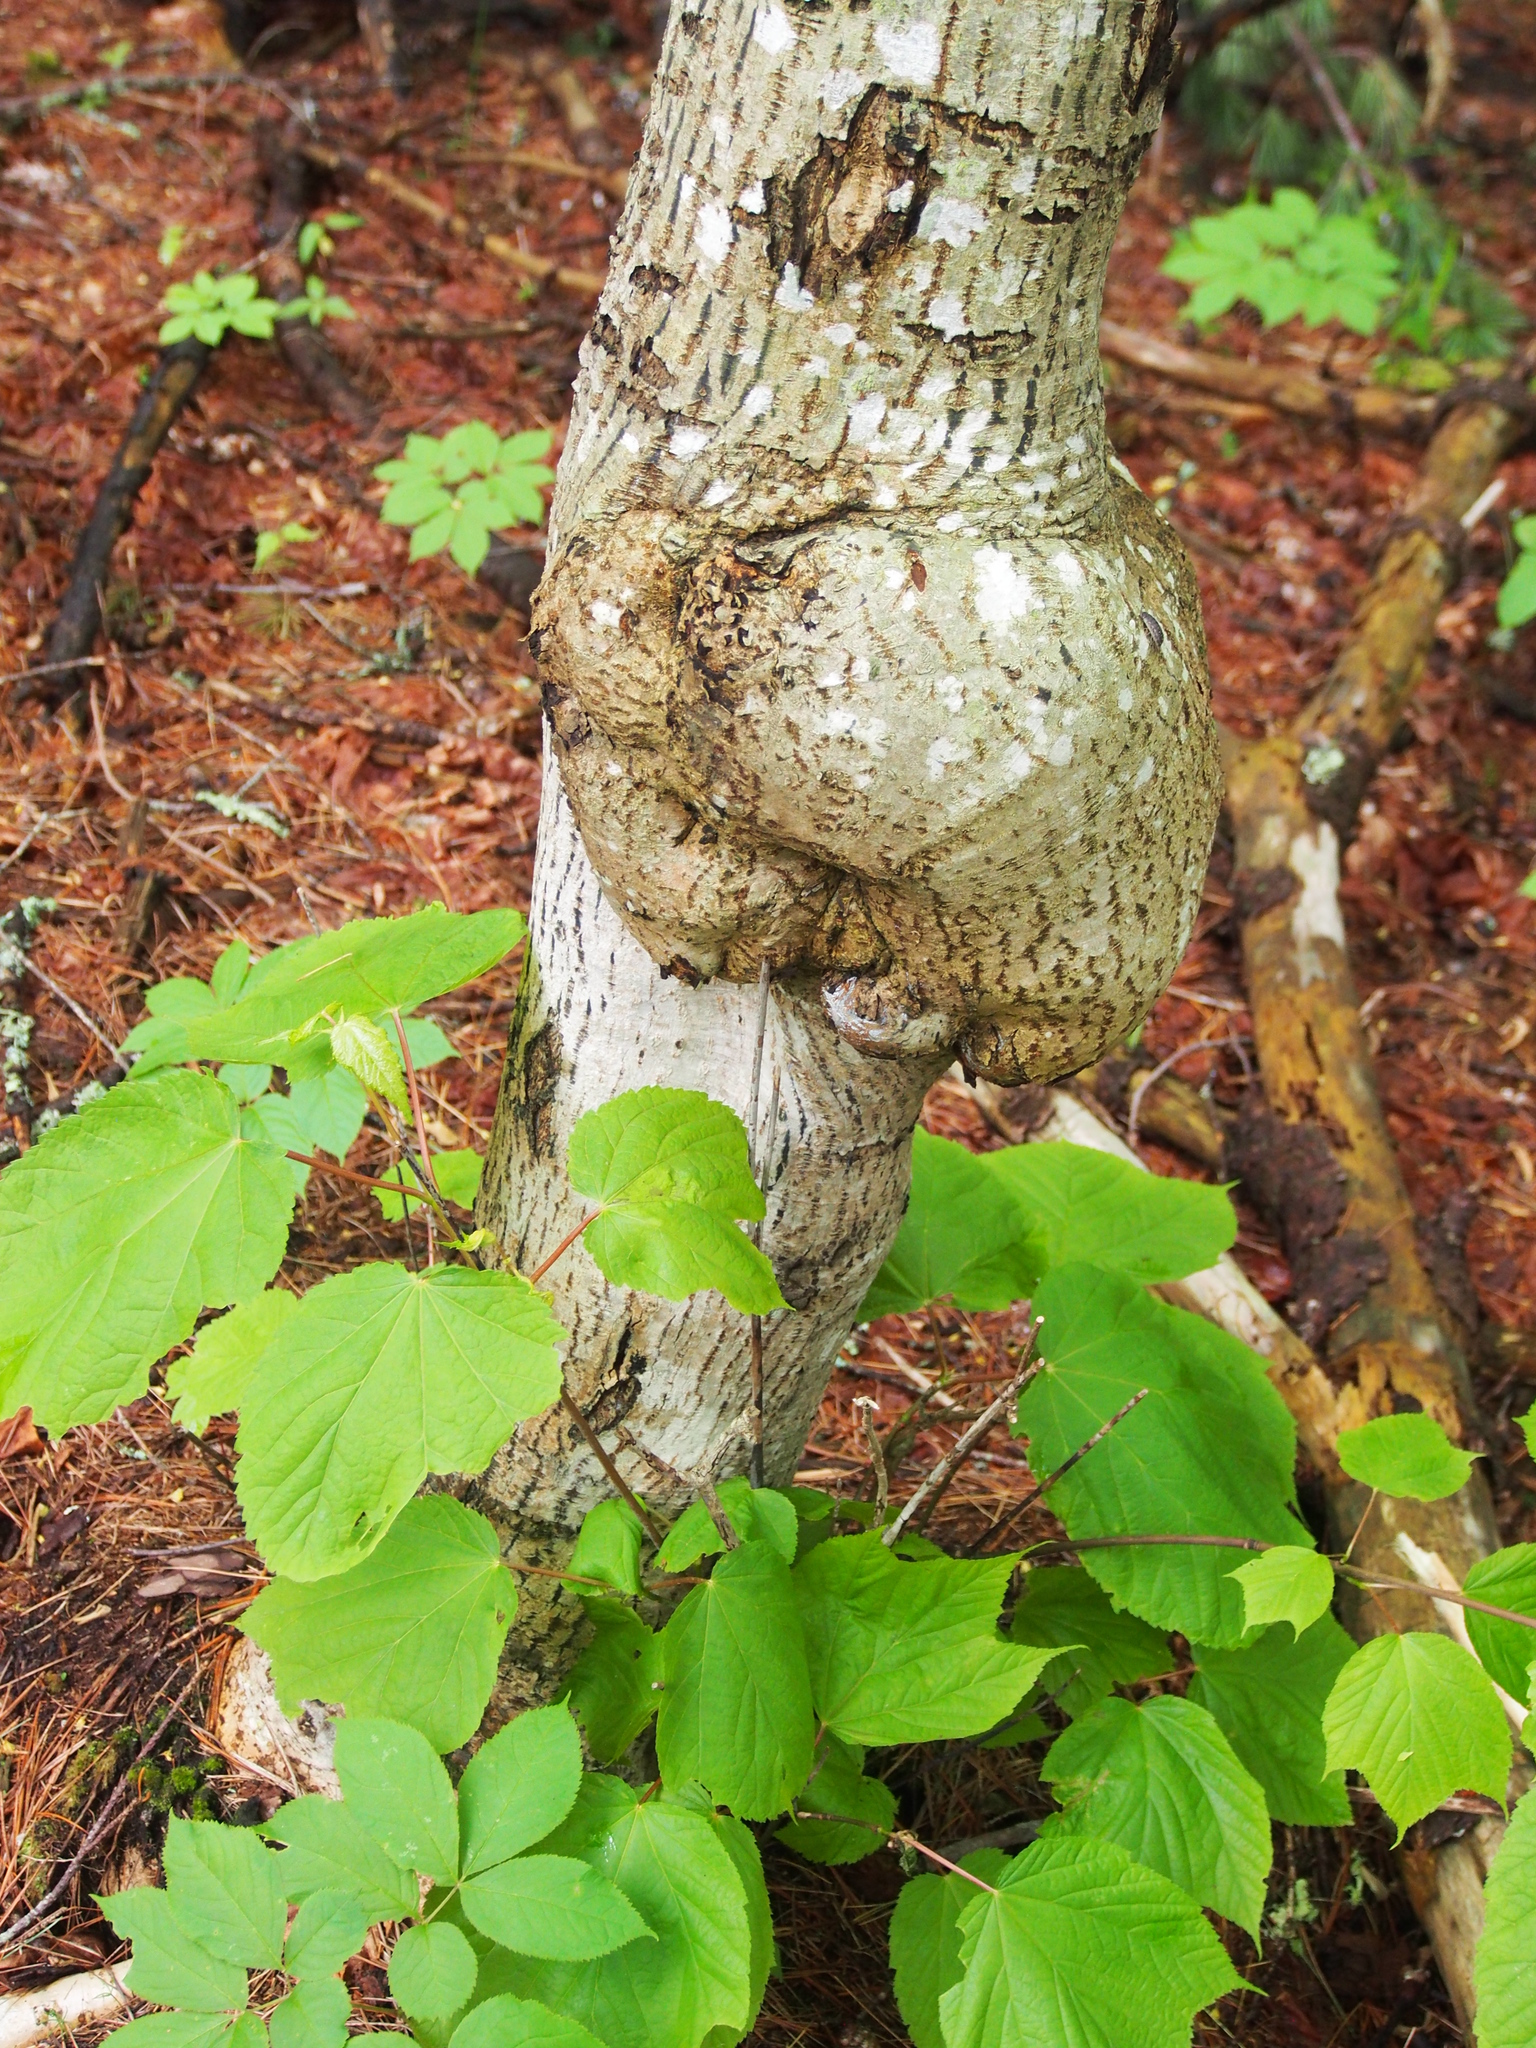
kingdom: Plantae
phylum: Tracheophyta
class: Magnoliopsida
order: Sapindales
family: Sapindaceae
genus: Acer
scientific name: Acer pensylvanicum
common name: Moosewood
